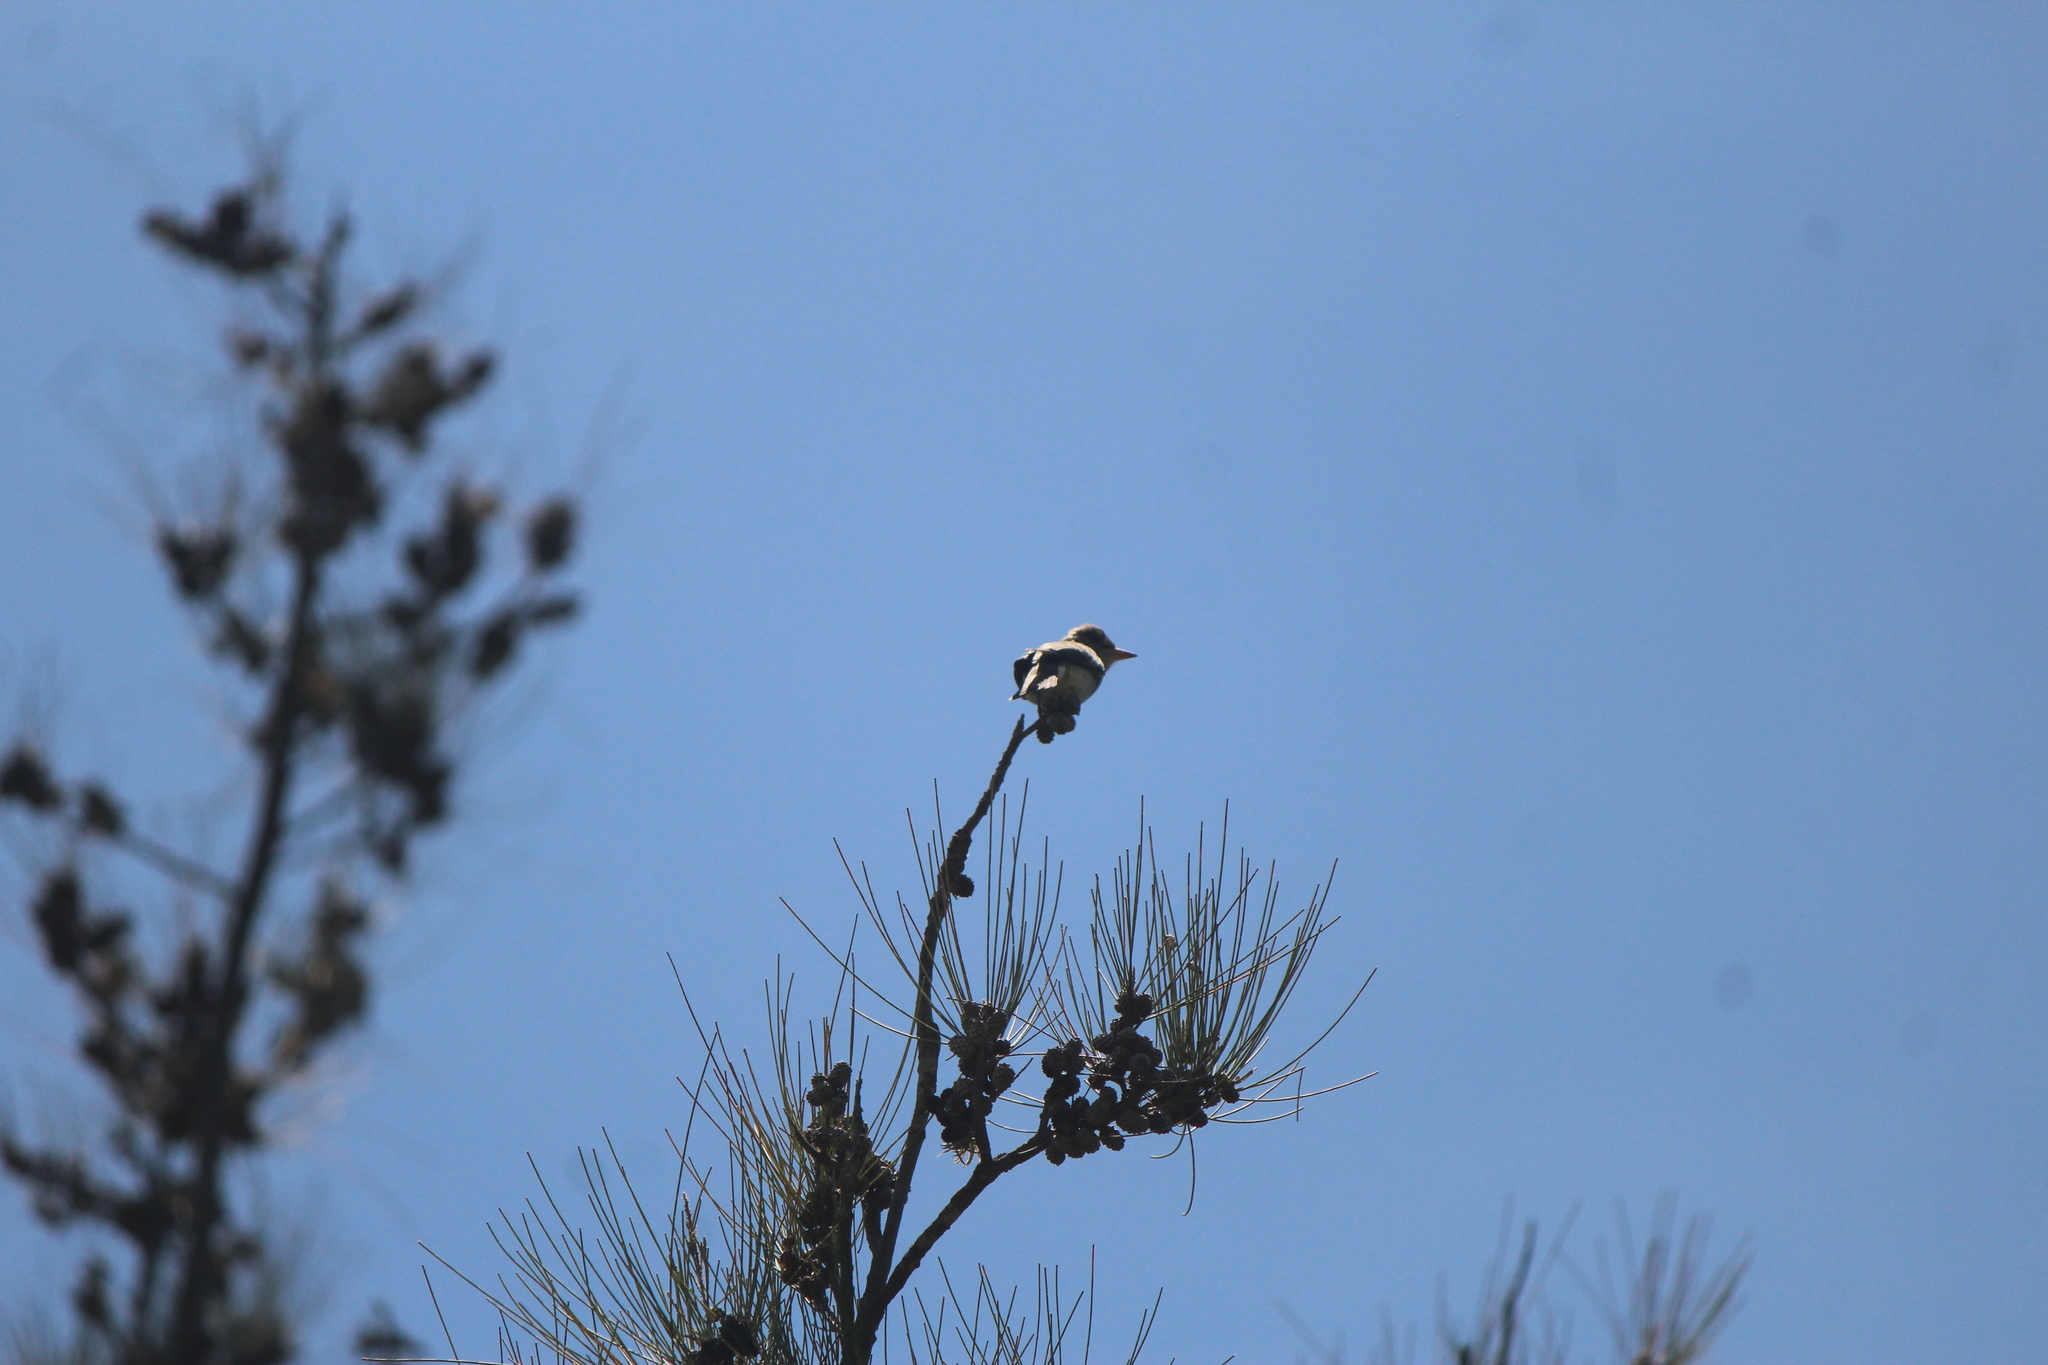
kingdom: Animalia
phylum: Chordata
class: Aves
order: Passeriformes
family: Tyrannidae
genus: Contopus
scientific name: Contopus pertinax
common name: Greater pewee
